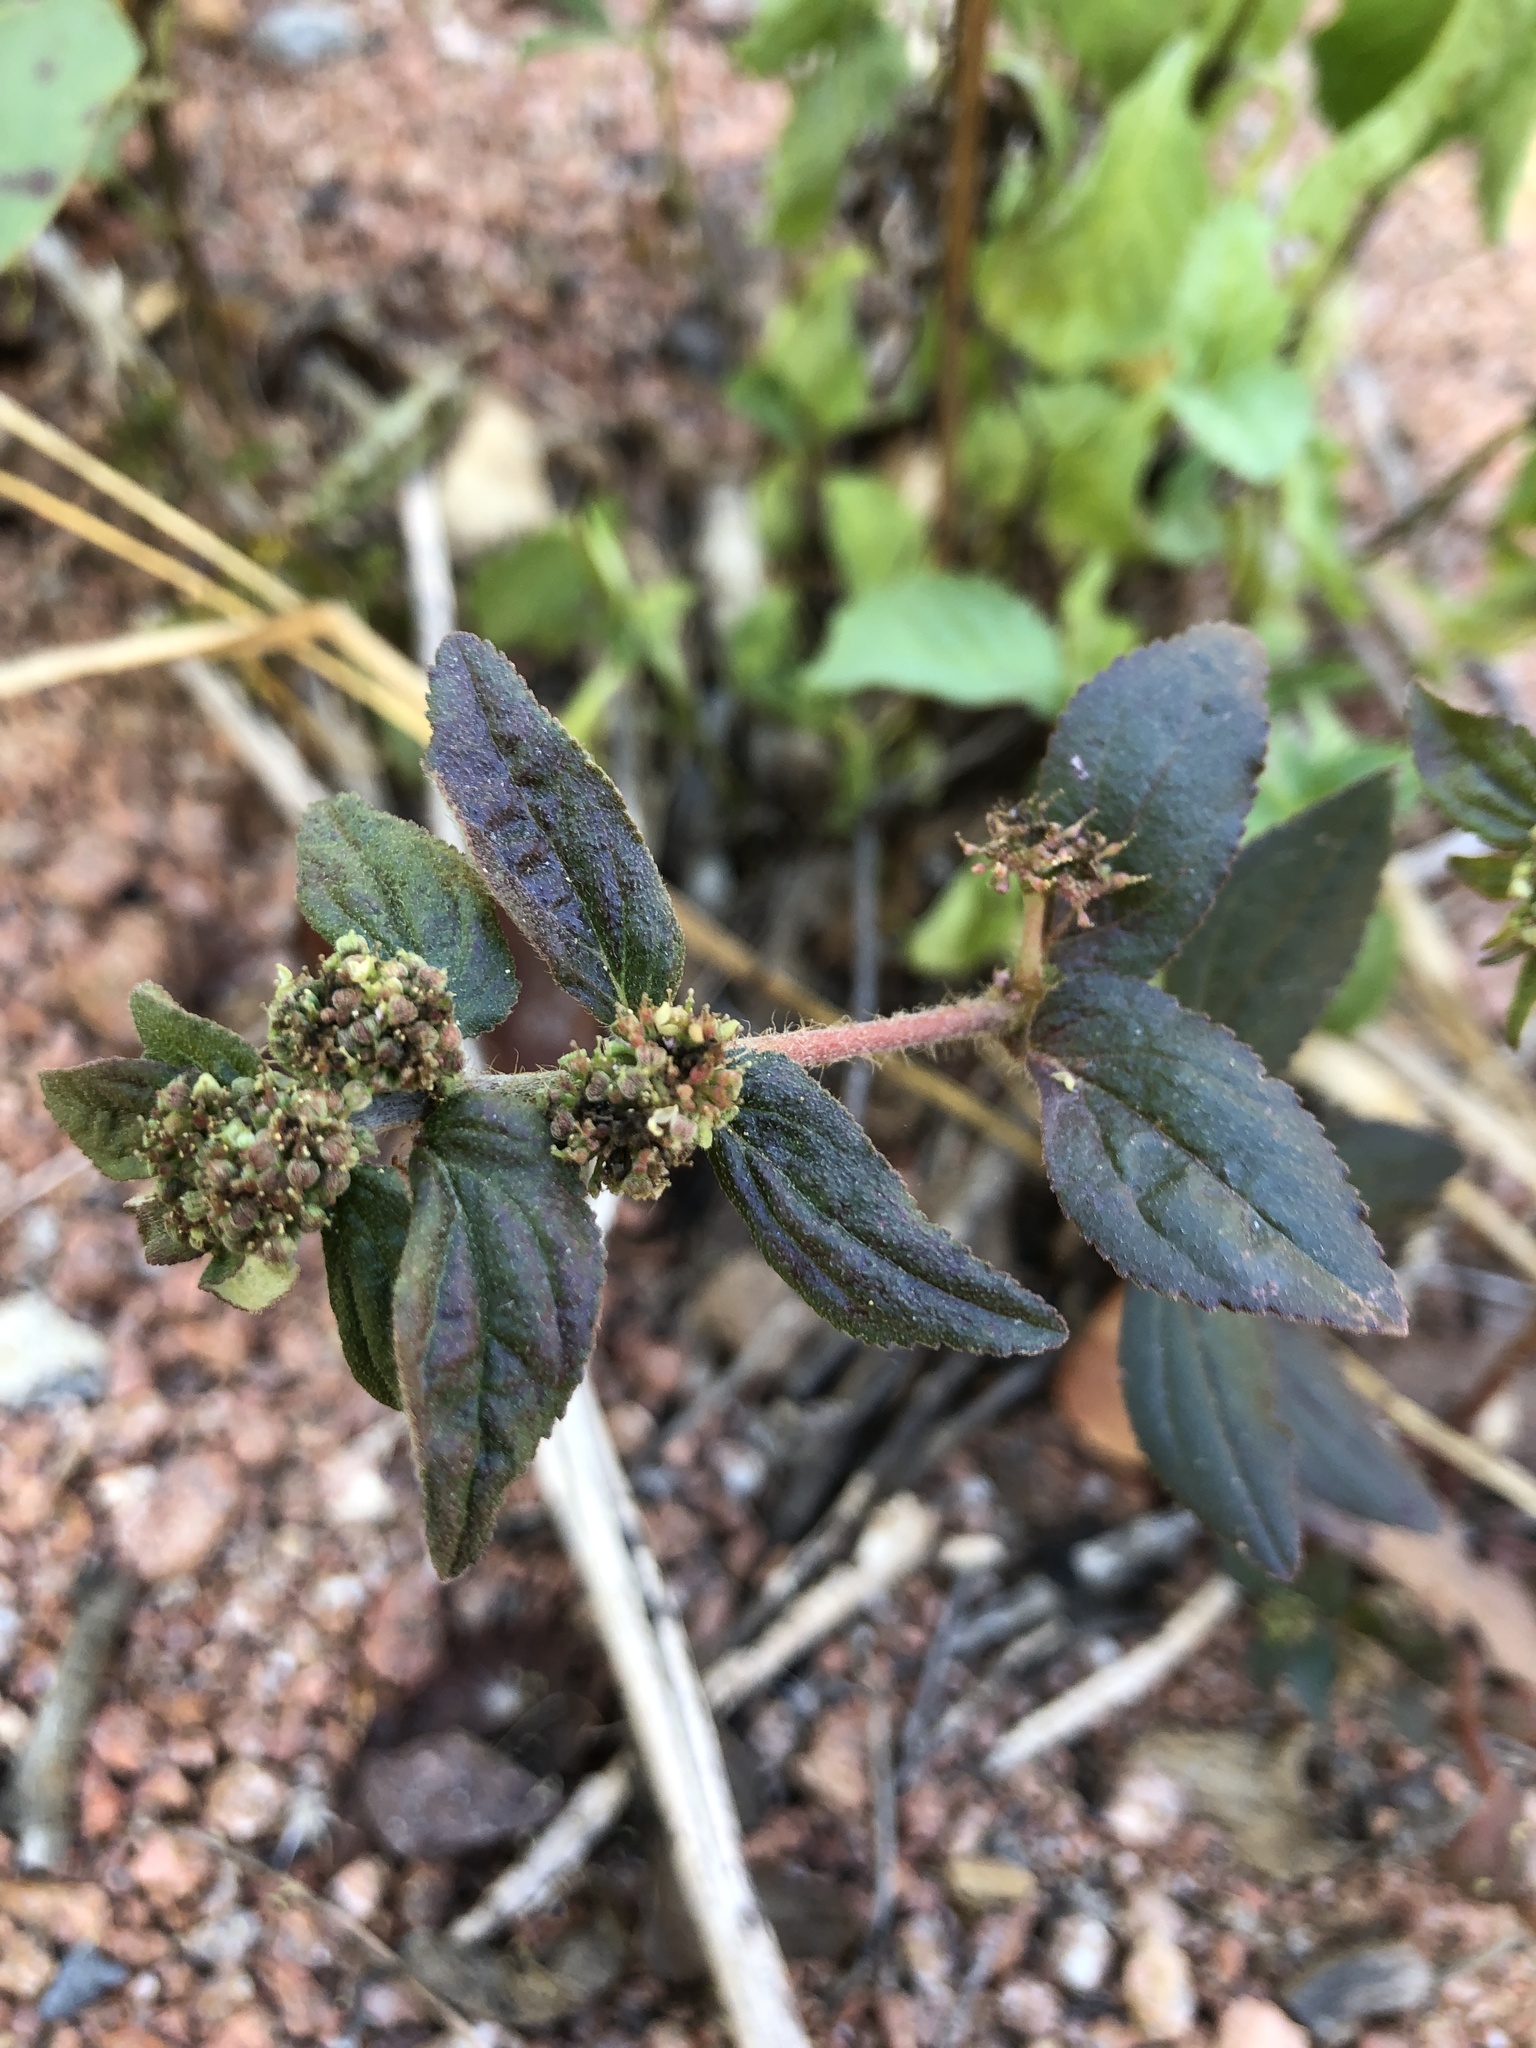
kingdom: Plantae
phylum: Tracheophyta
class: Magnoliopsida
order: Malpighiales
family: Euphorbiaceae
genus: Euphorbia
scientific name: Euphorbia hirta
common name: Pillpod sandmat
